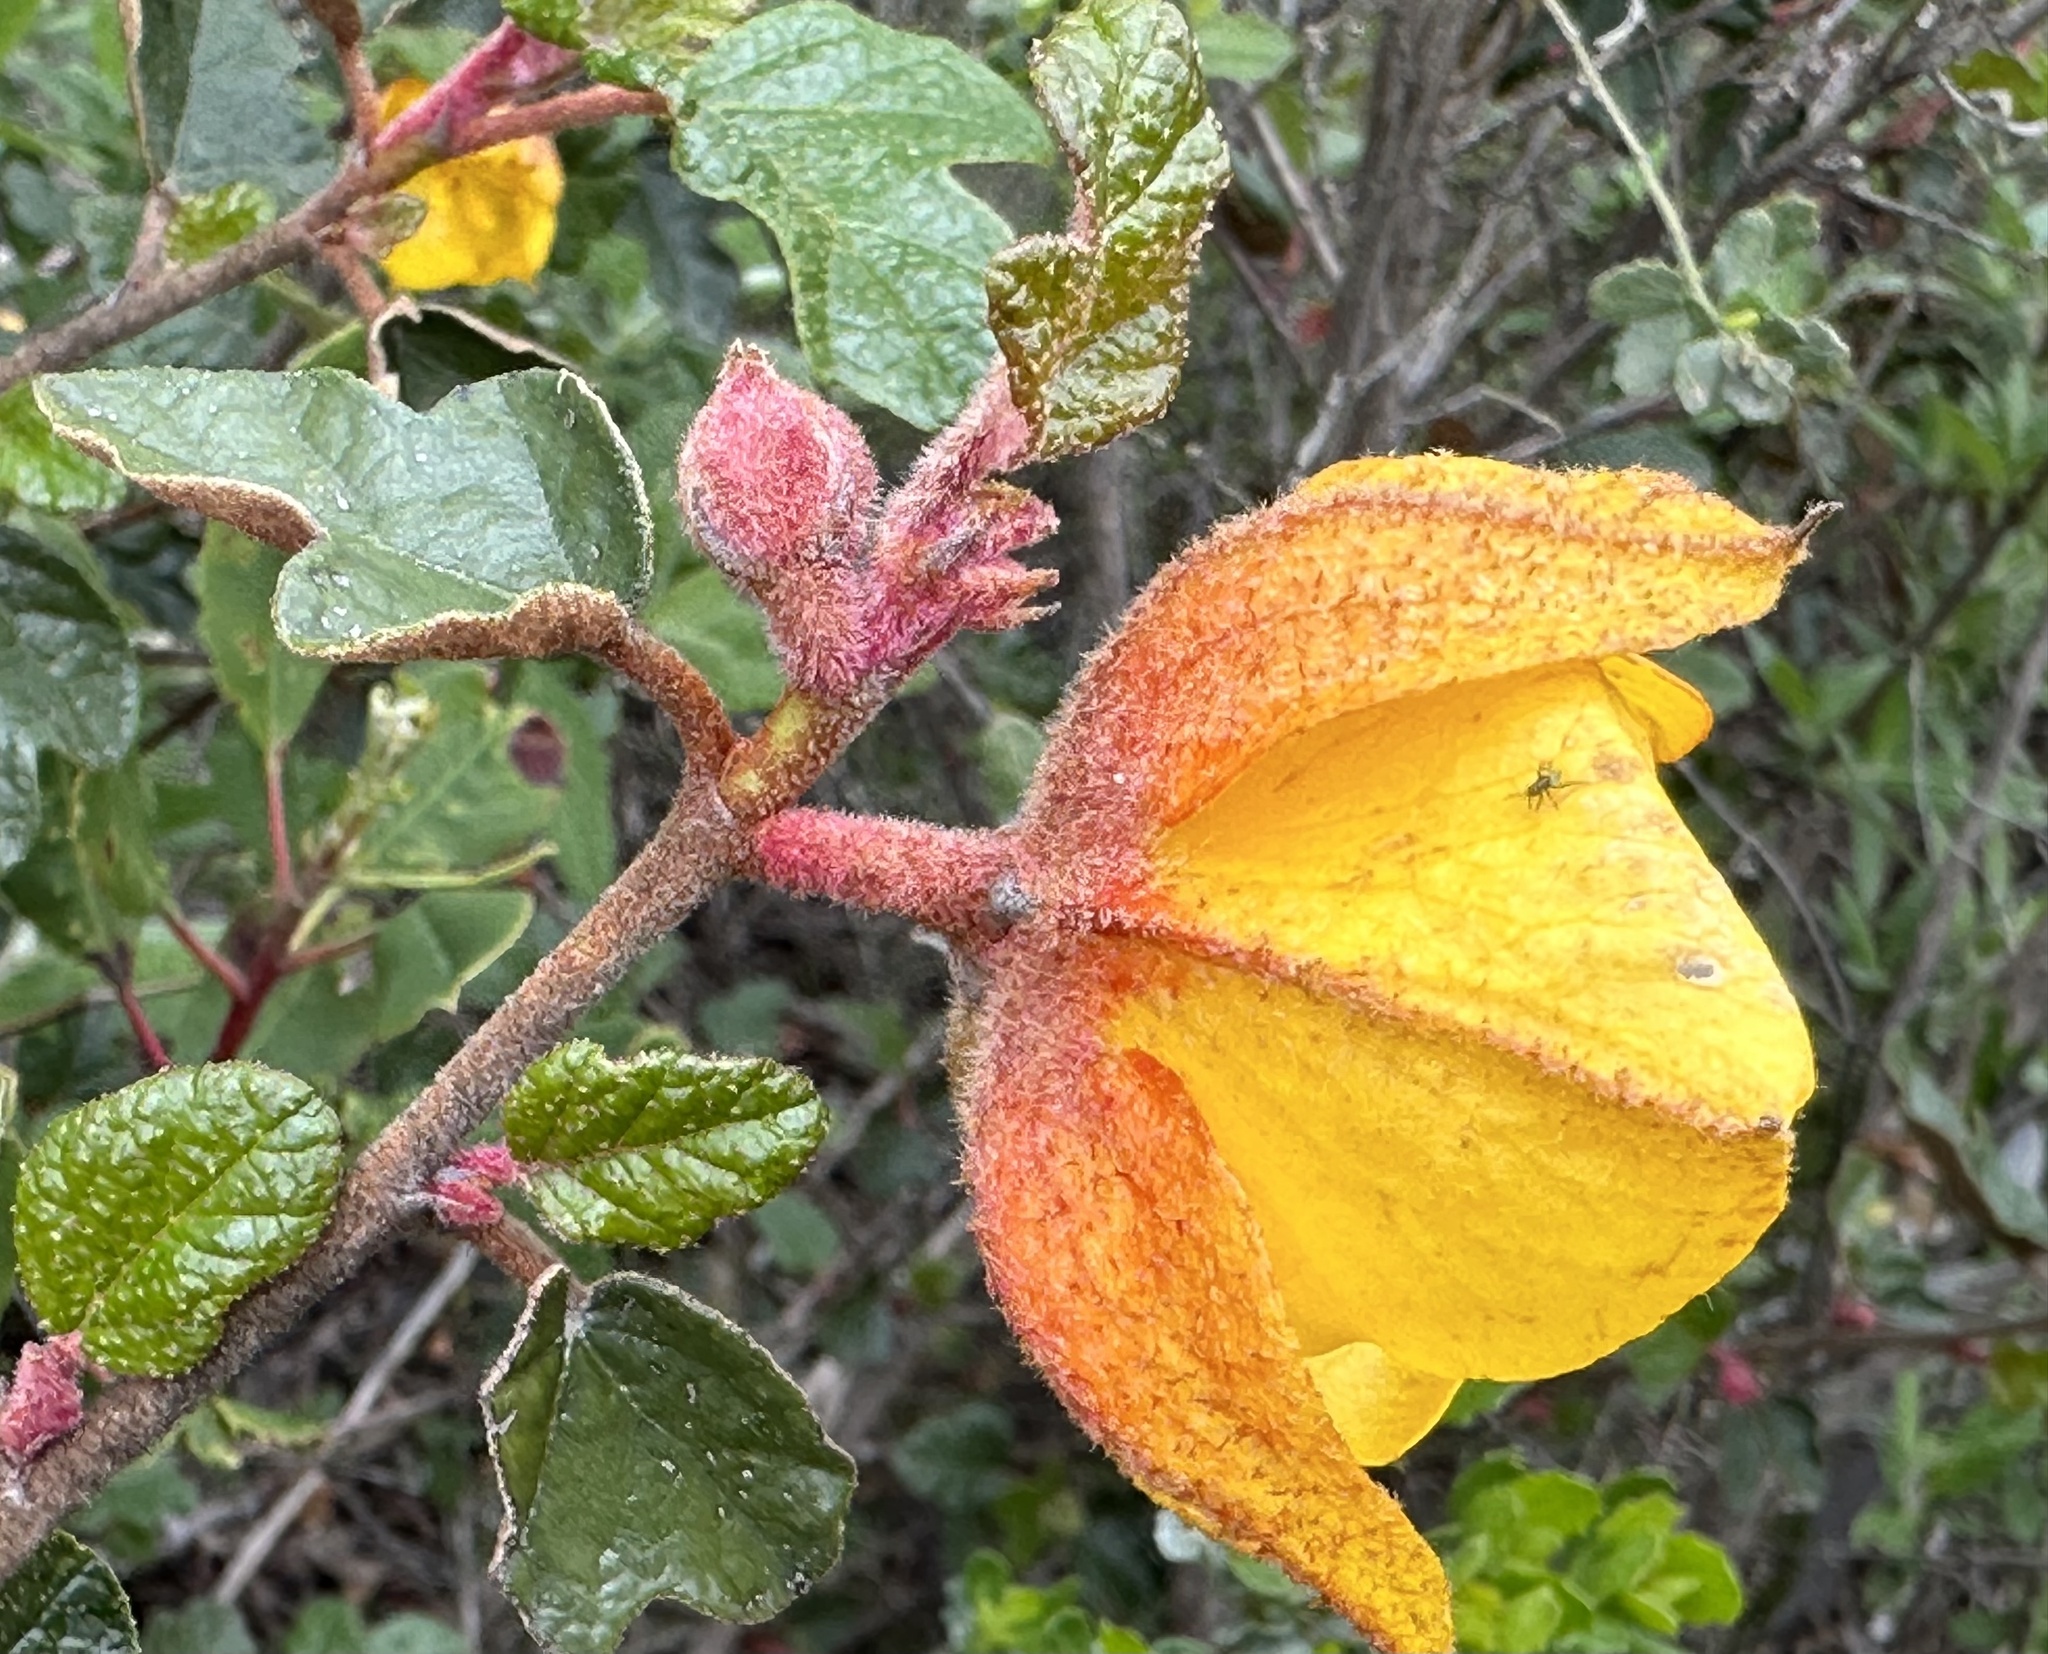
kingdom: Plantae
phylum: Tracheophyta
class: Magnoliopsida
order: Malvales
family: Malvaceae
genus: Fremontodendron
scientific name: Fremontodendron californicum
